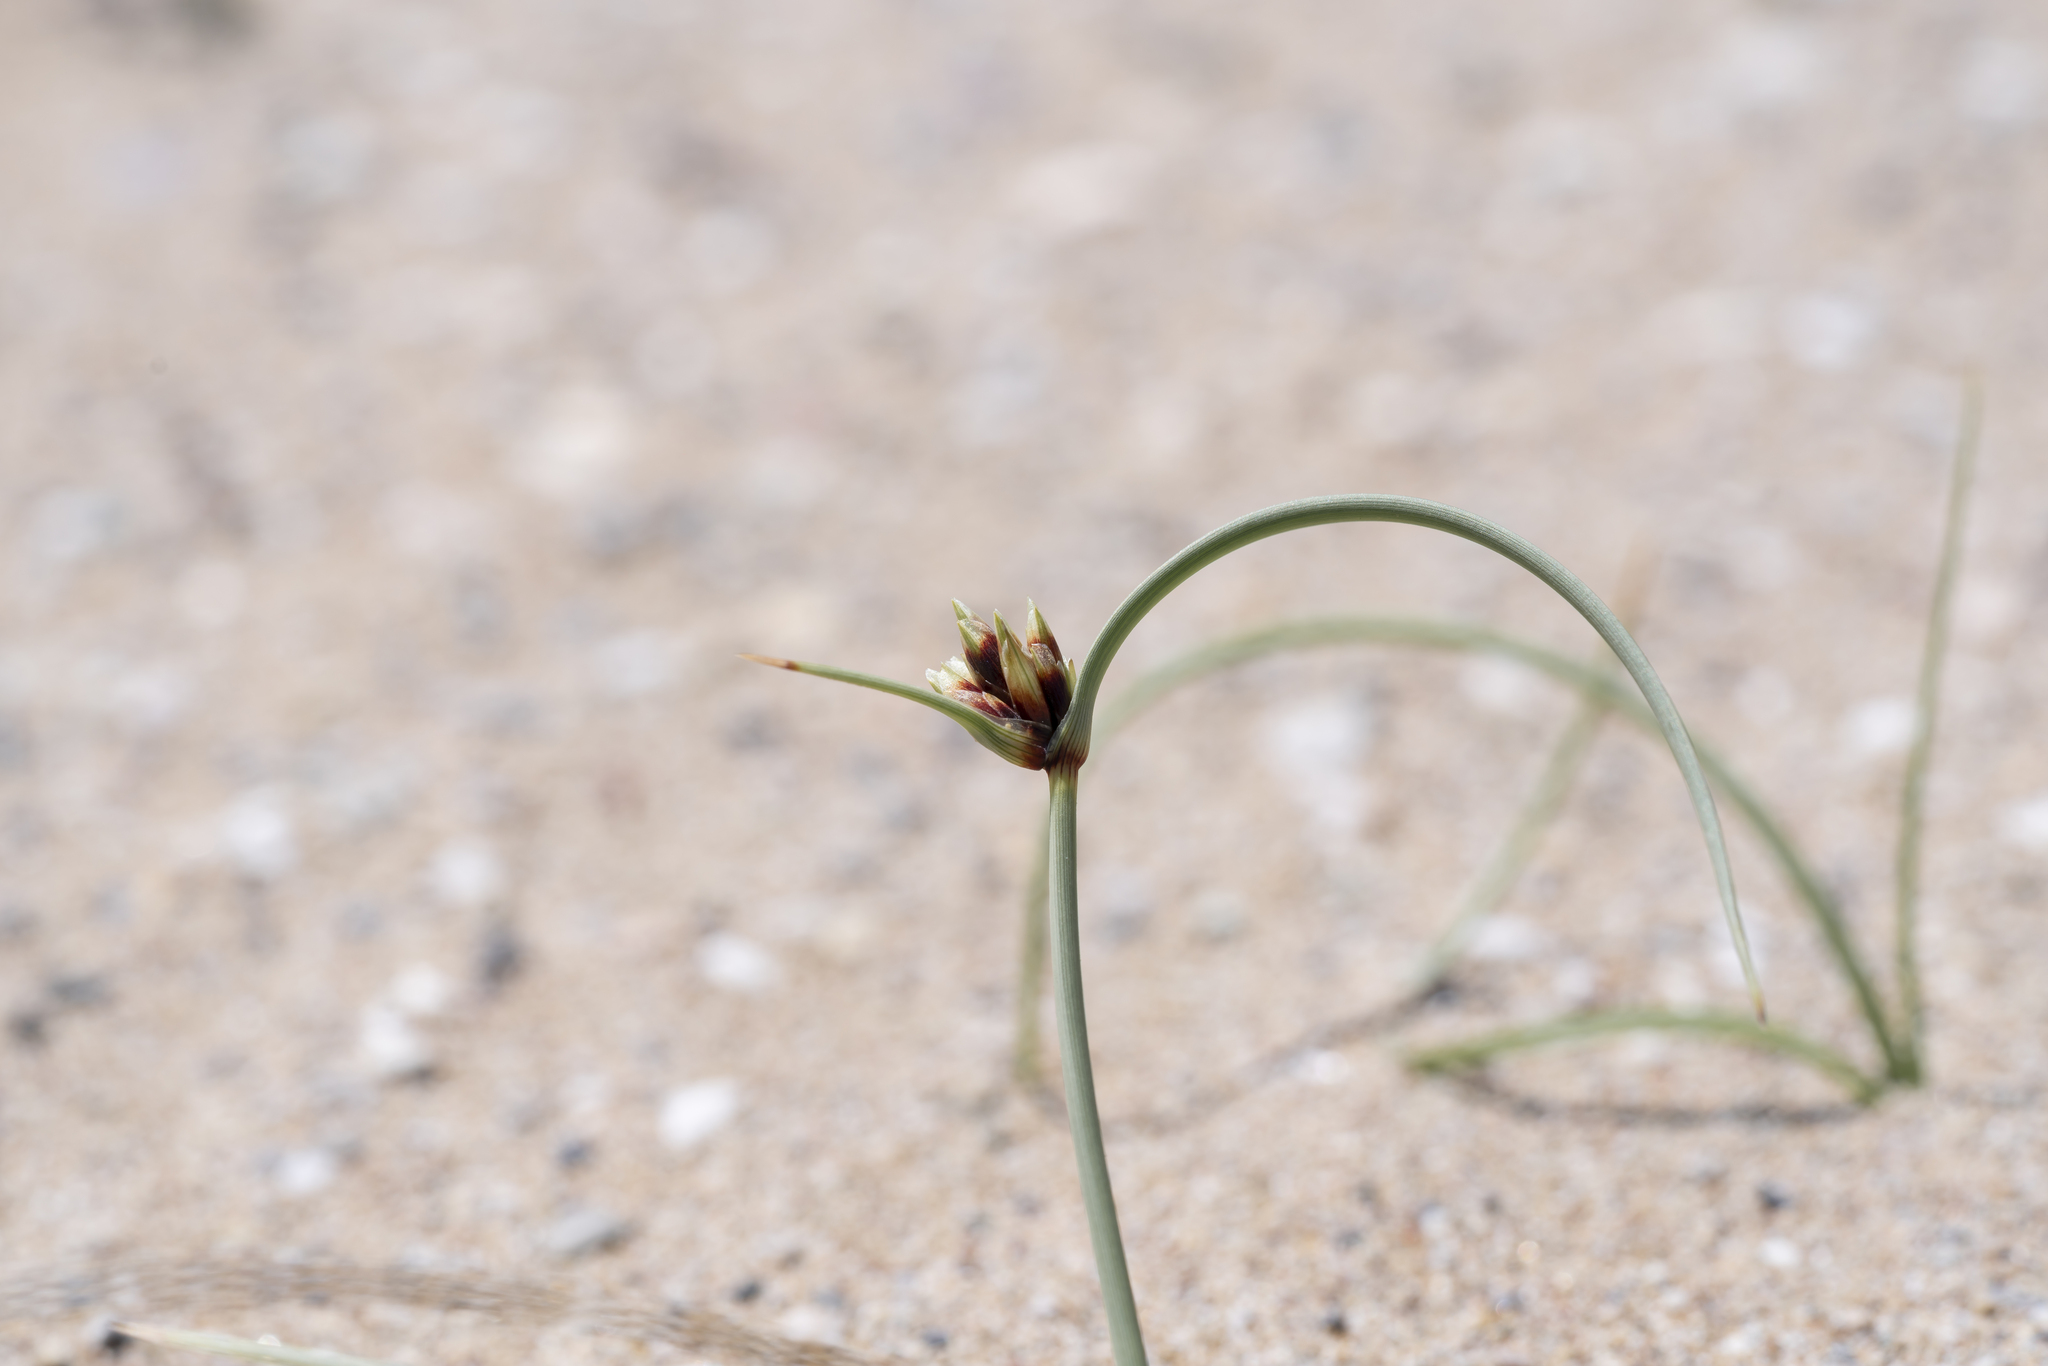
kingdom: Plantae
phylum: Tracheophyta
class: Liliopsida
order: Poales
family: Cyperaceae
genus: Cyperus
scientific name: Cyperus capitatus
